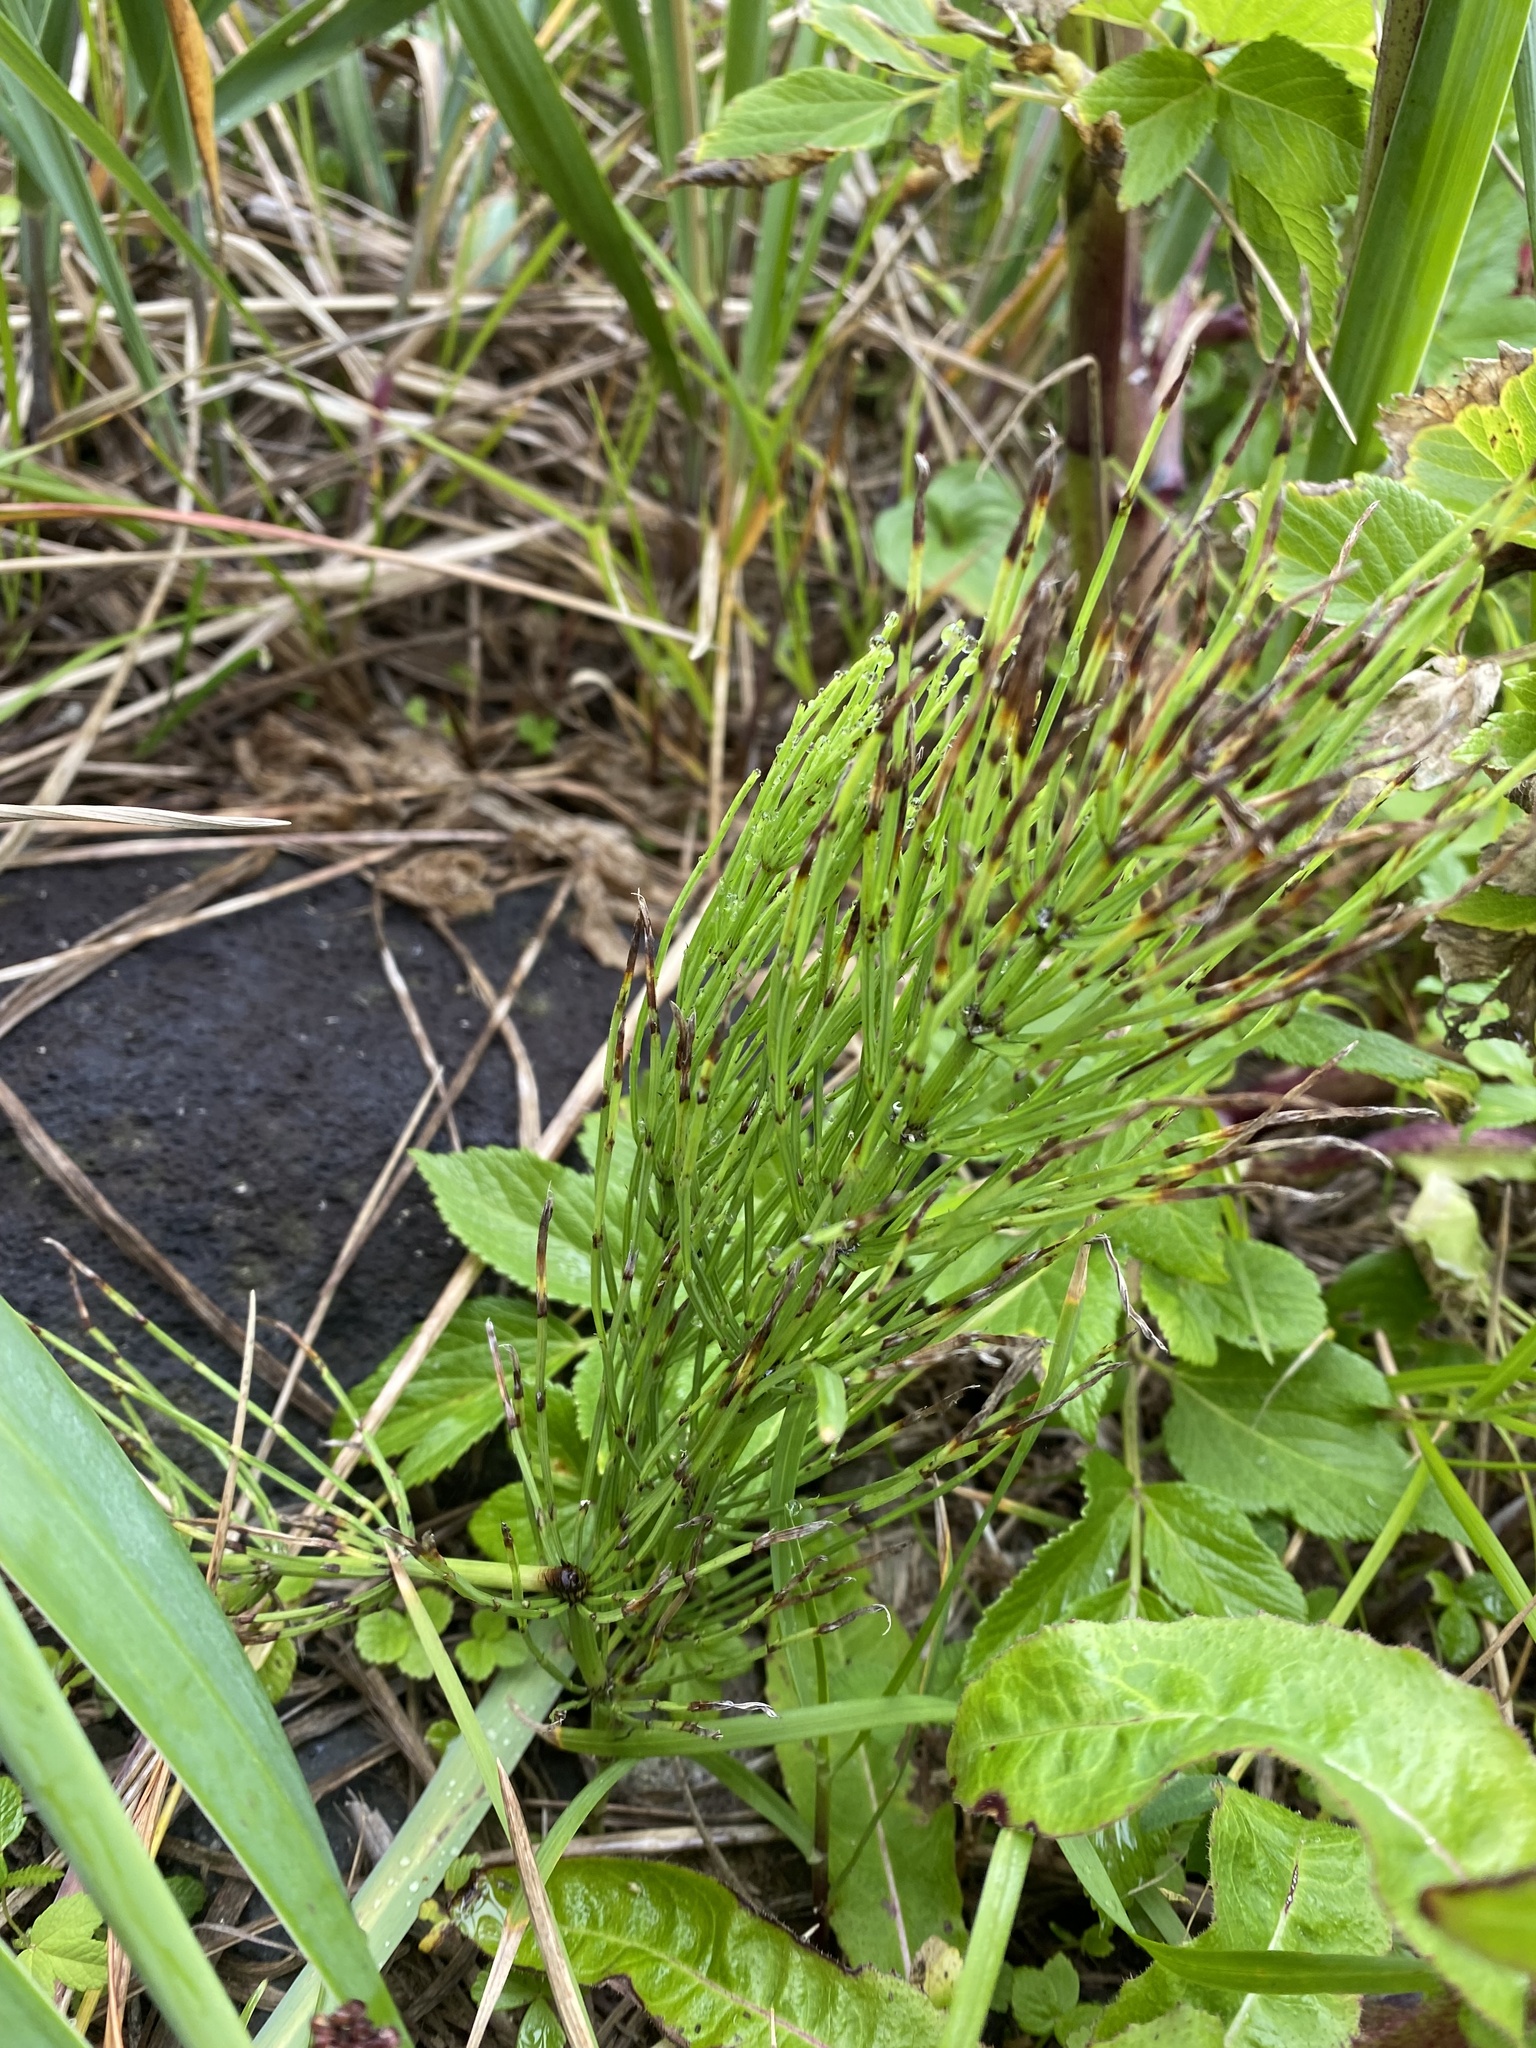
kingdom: Plantae
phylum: Tracheophyta
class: Polypodiopsida
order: Equisetales
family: Equisetaceae
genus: Equisetum
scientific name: Equisetum arvense
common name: Field horsetail
